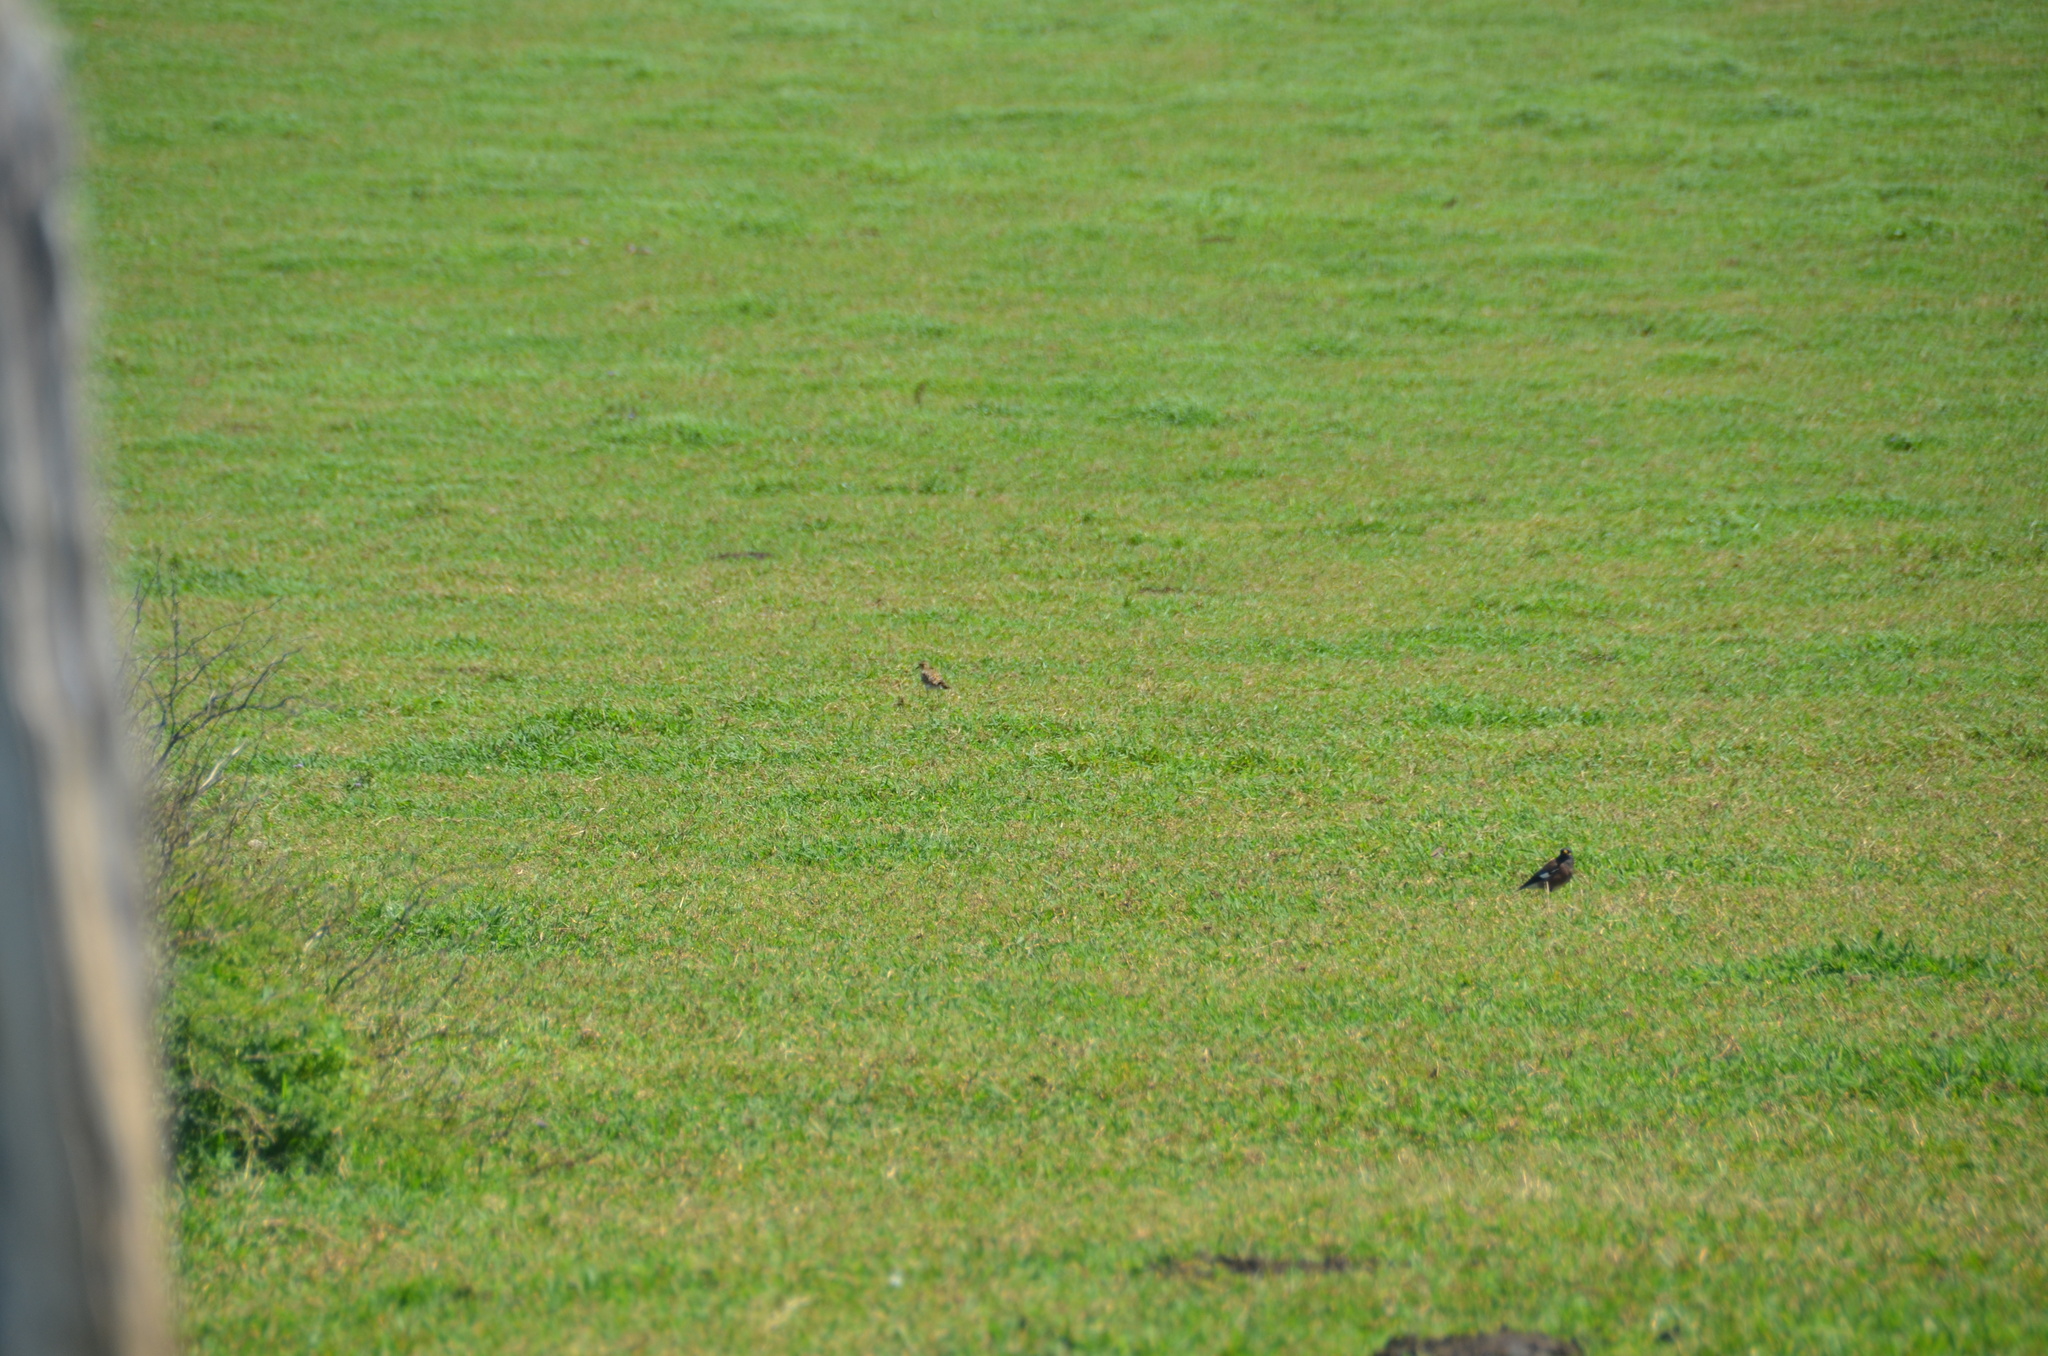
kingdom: Animalia
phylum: Chordata
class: Aves
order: Passeriformes
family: Sturnidae
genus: Acridotheres
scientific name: Acridotheres tristis
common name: Common myna
